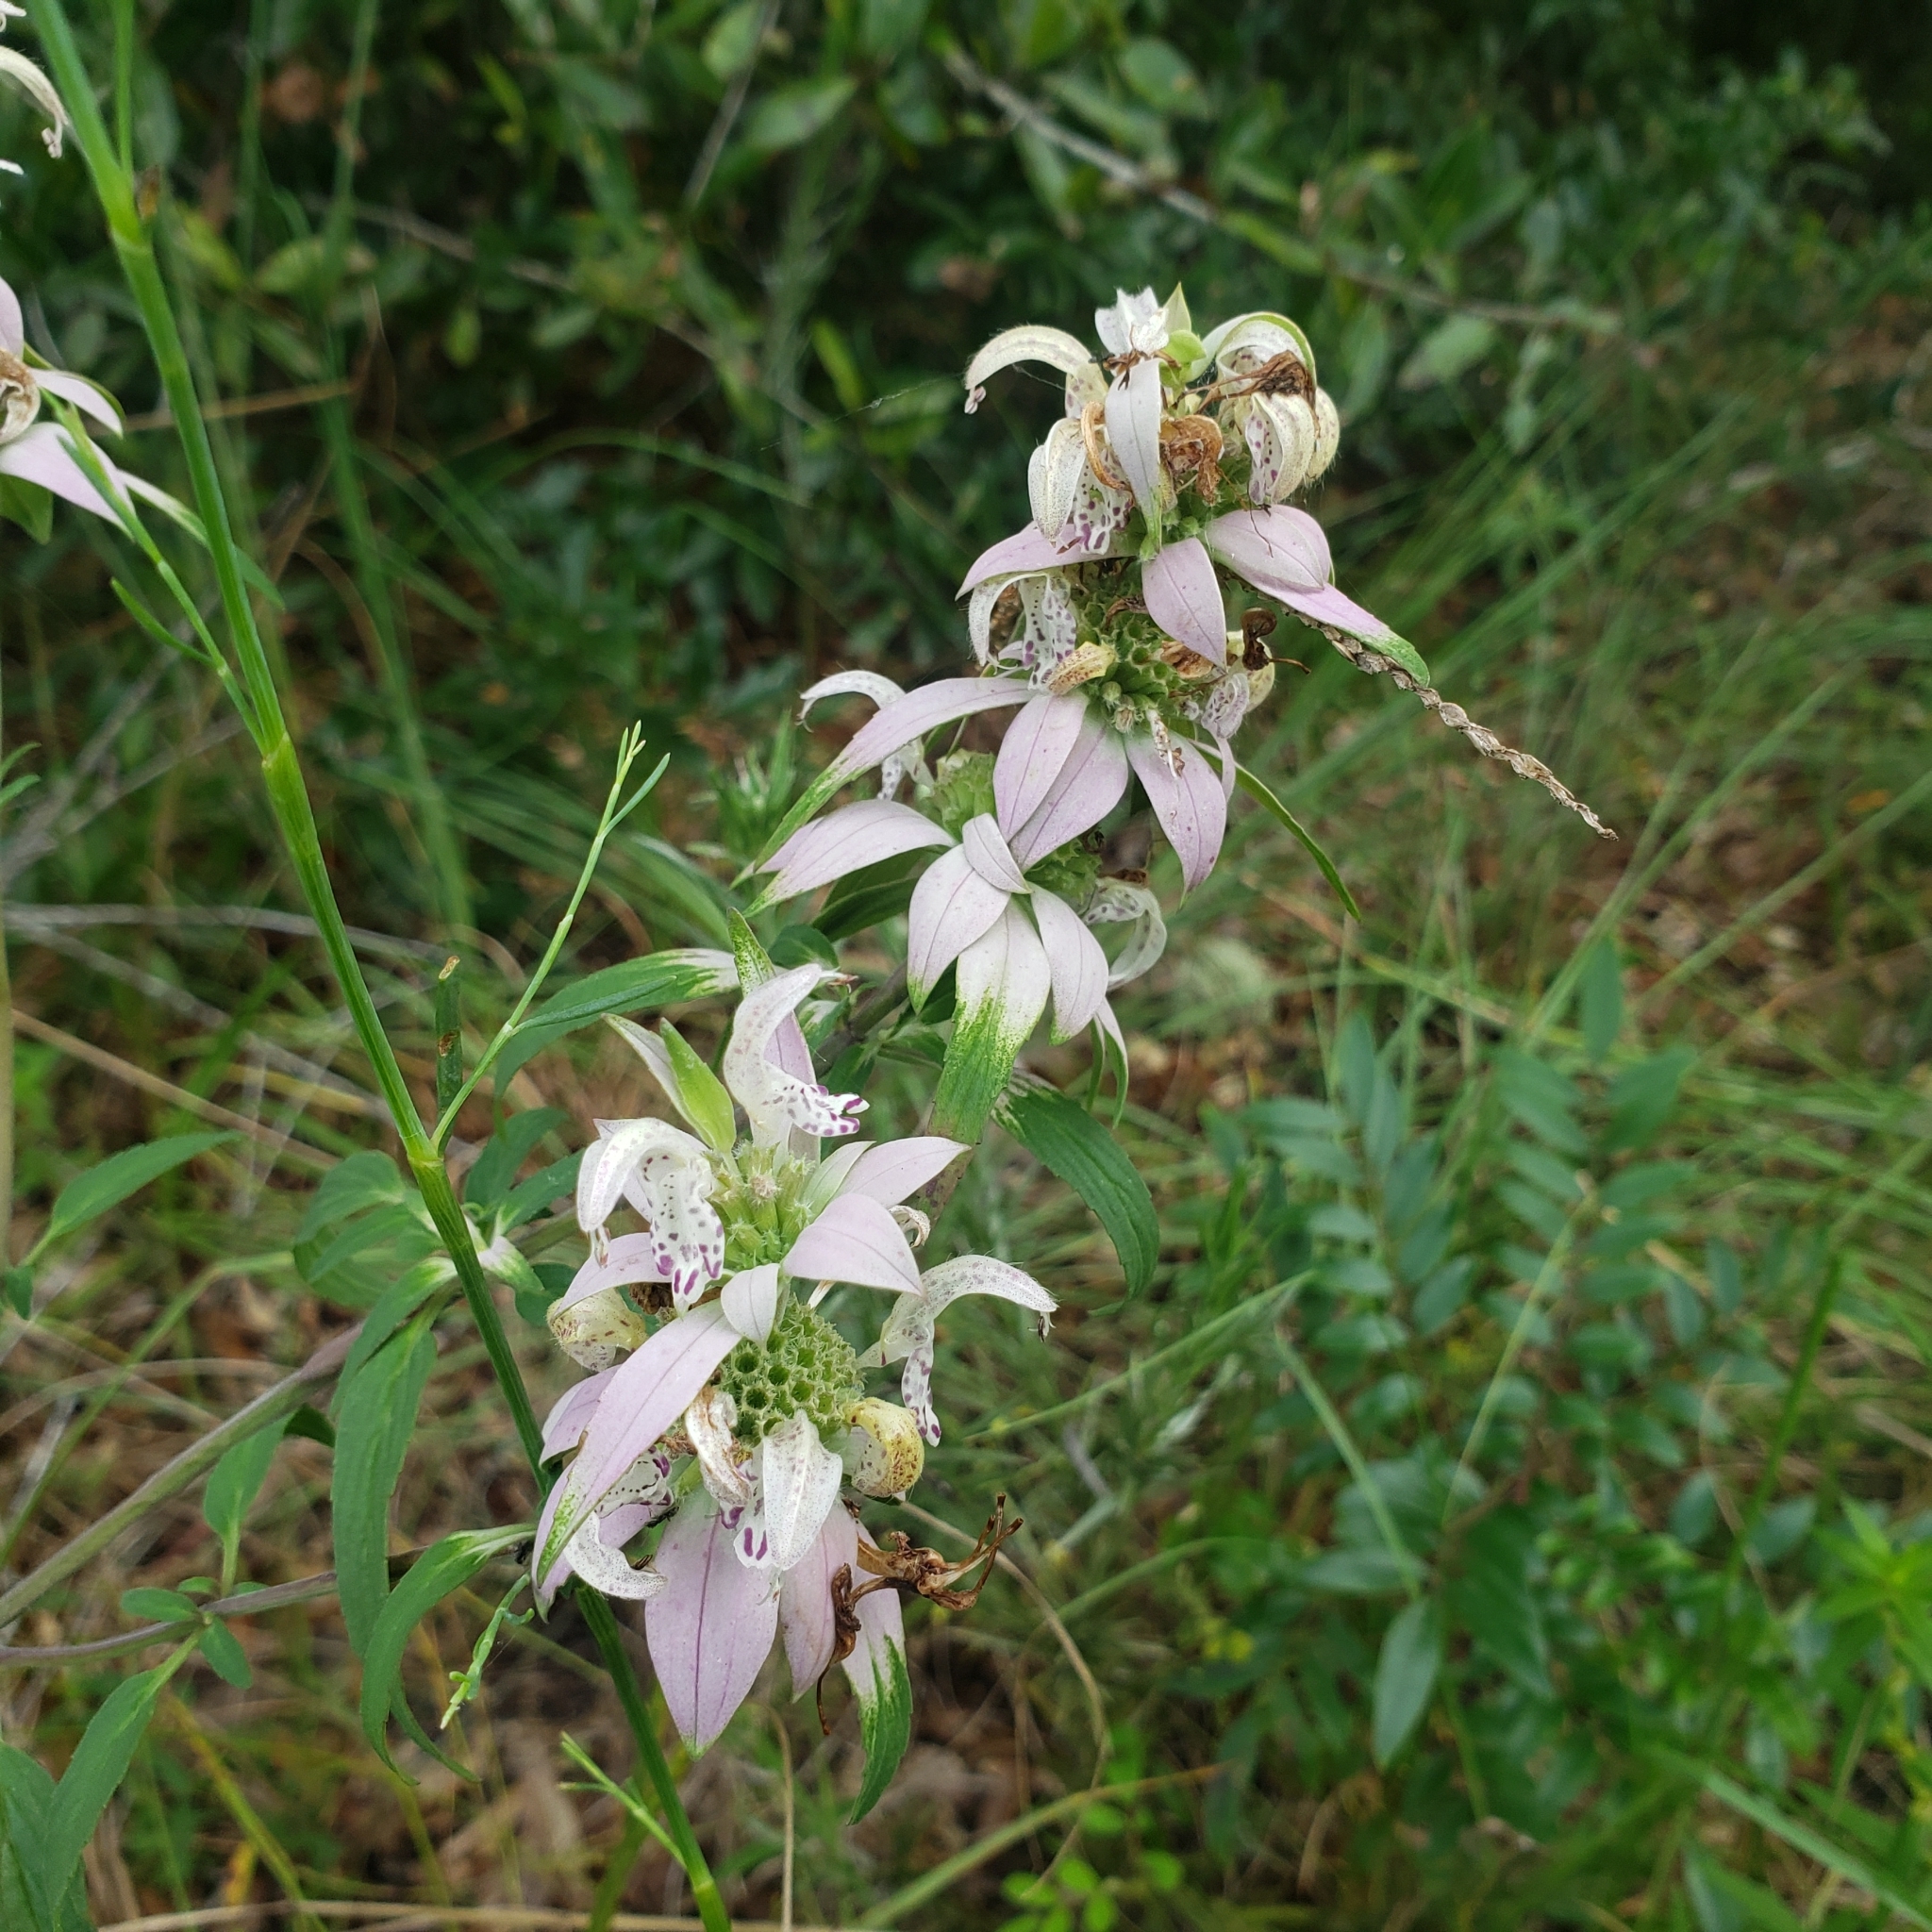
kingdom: Plantae
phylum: Tracheophyta
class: Magnoliopsida
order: Lamiales
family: Lamiaceae
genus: Monarda
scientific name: Monarda punctata
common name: Dotted monarda
